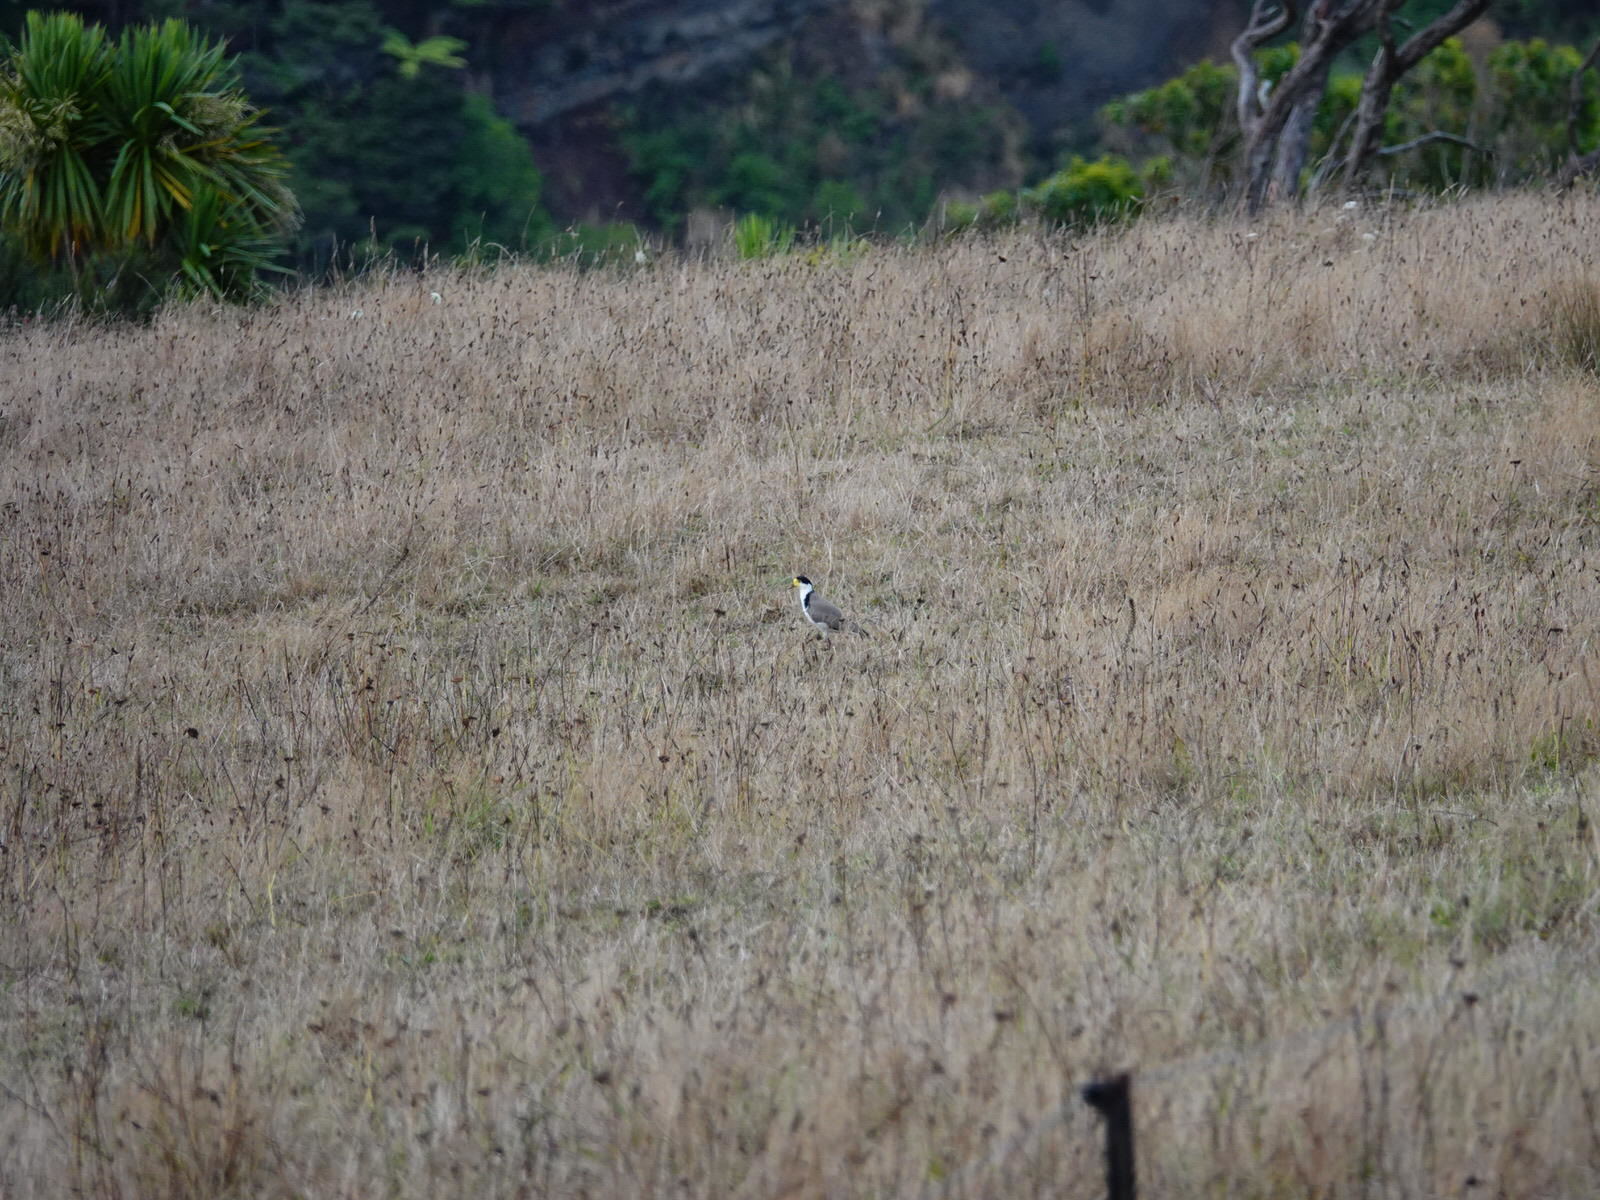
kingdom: Animalia
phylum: Chordata
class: Aves
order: Charadriiformes
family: Charadriidae
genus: Vanellus
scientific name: Vanellus miles
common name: Masked lapwing
